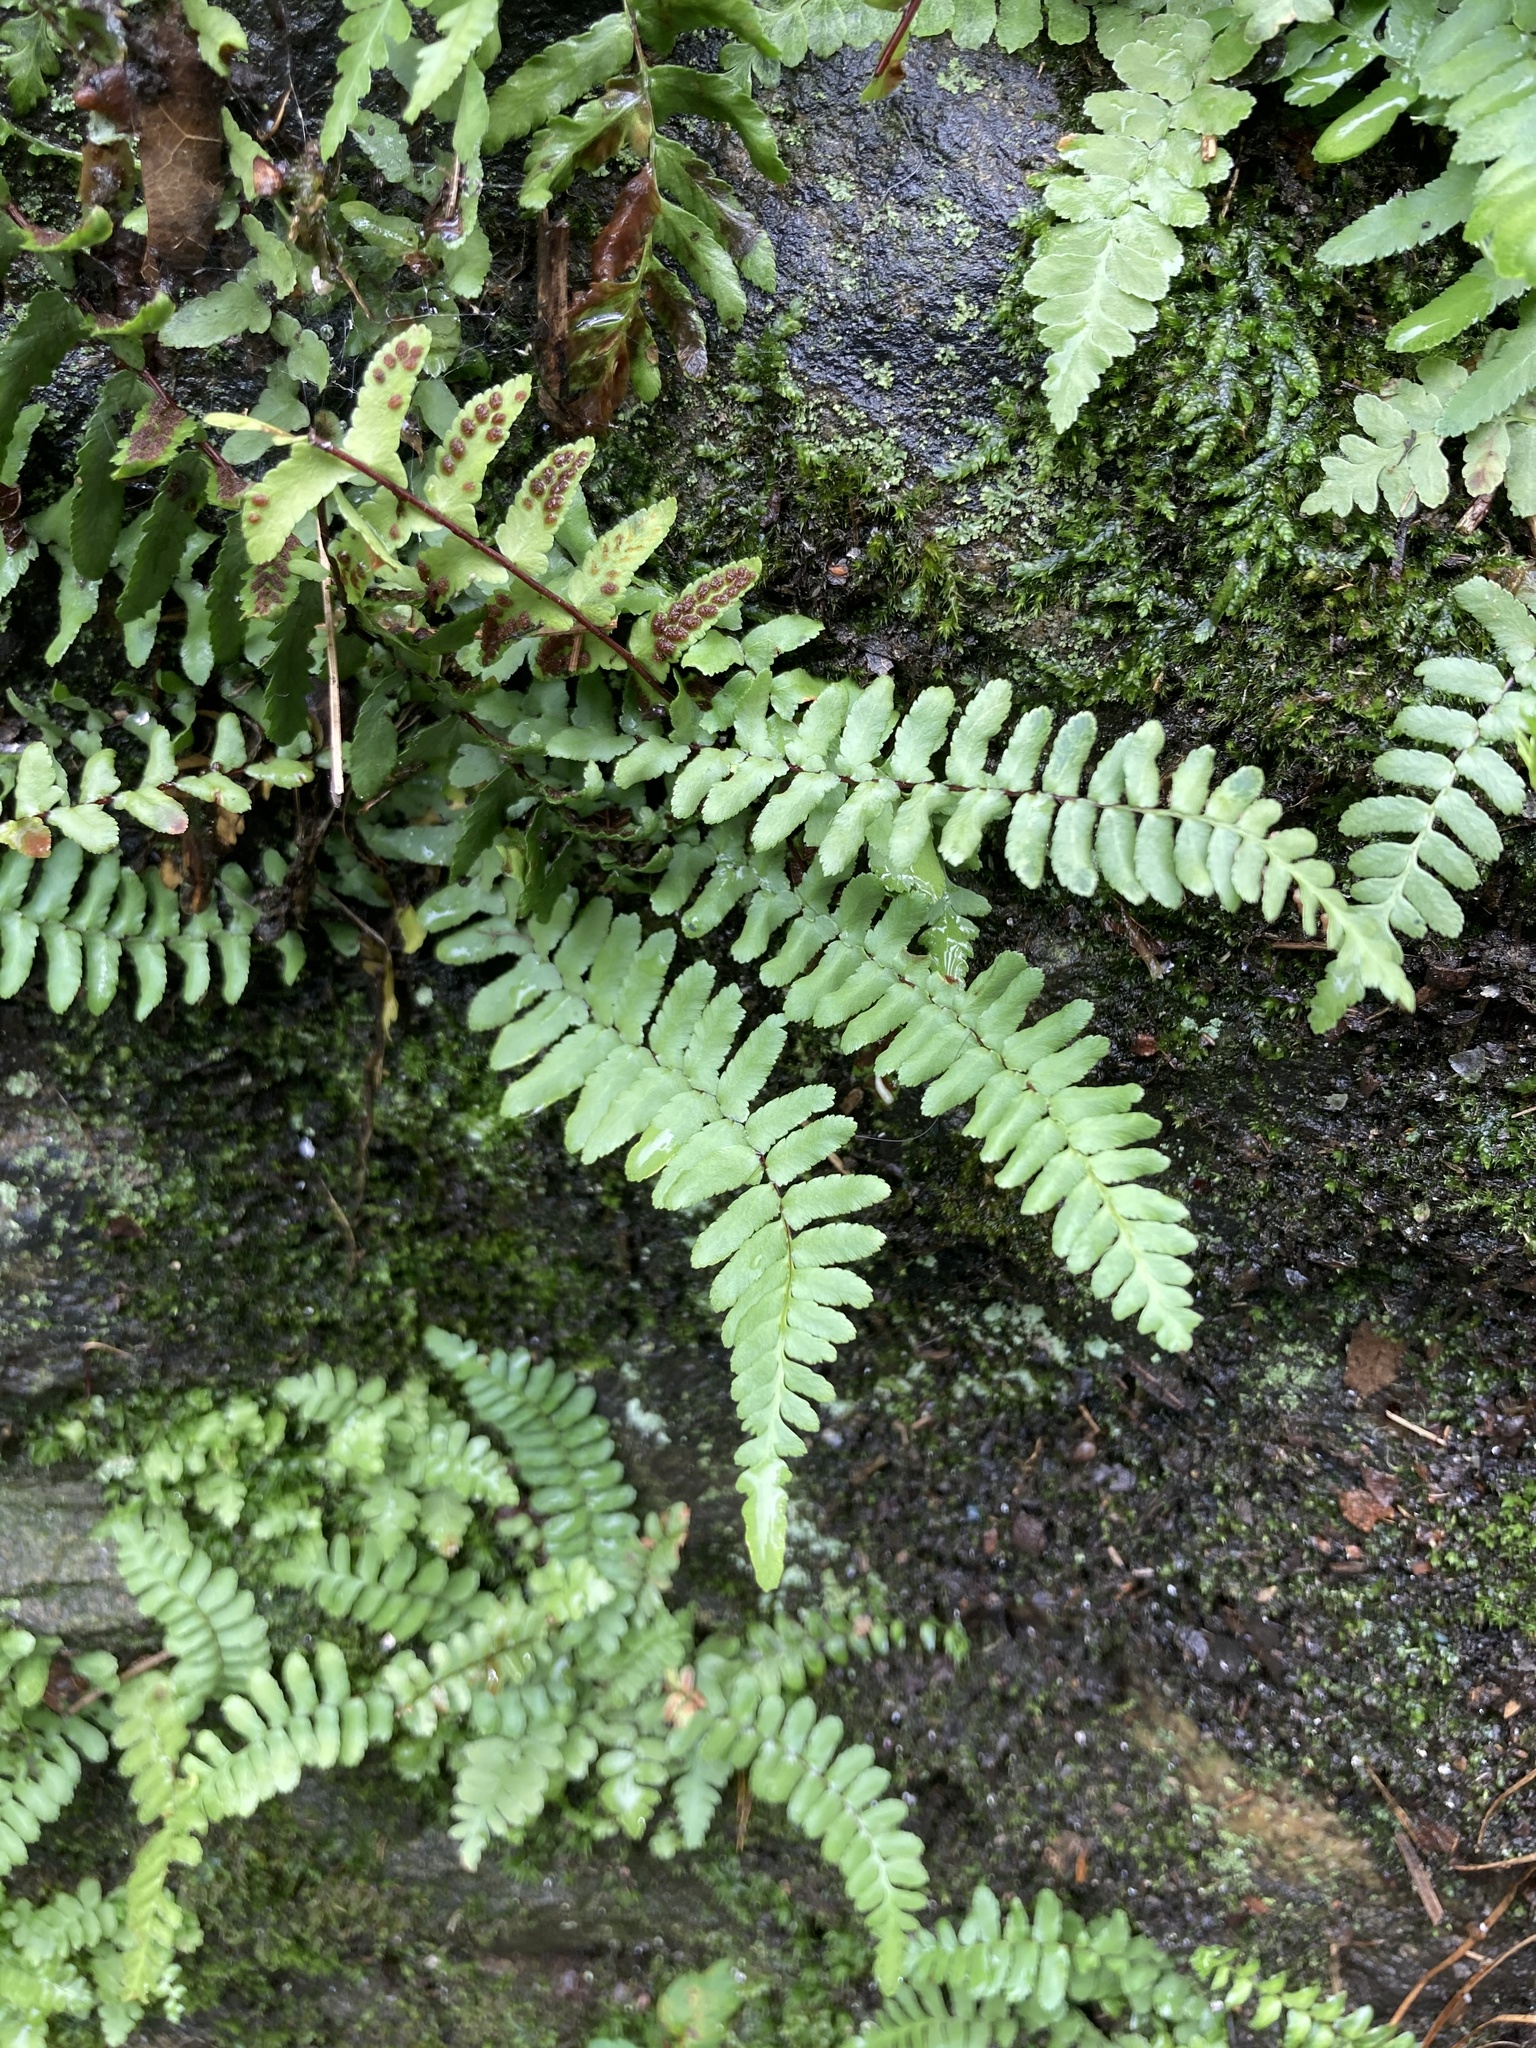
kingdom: Plantae
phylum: Tracheophyta
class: Polypodiopsida
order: Polypodiales
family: Aspleniaceae
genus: Asplenium
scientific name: Asplenium platyneuron
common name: Ebony spleenwort
